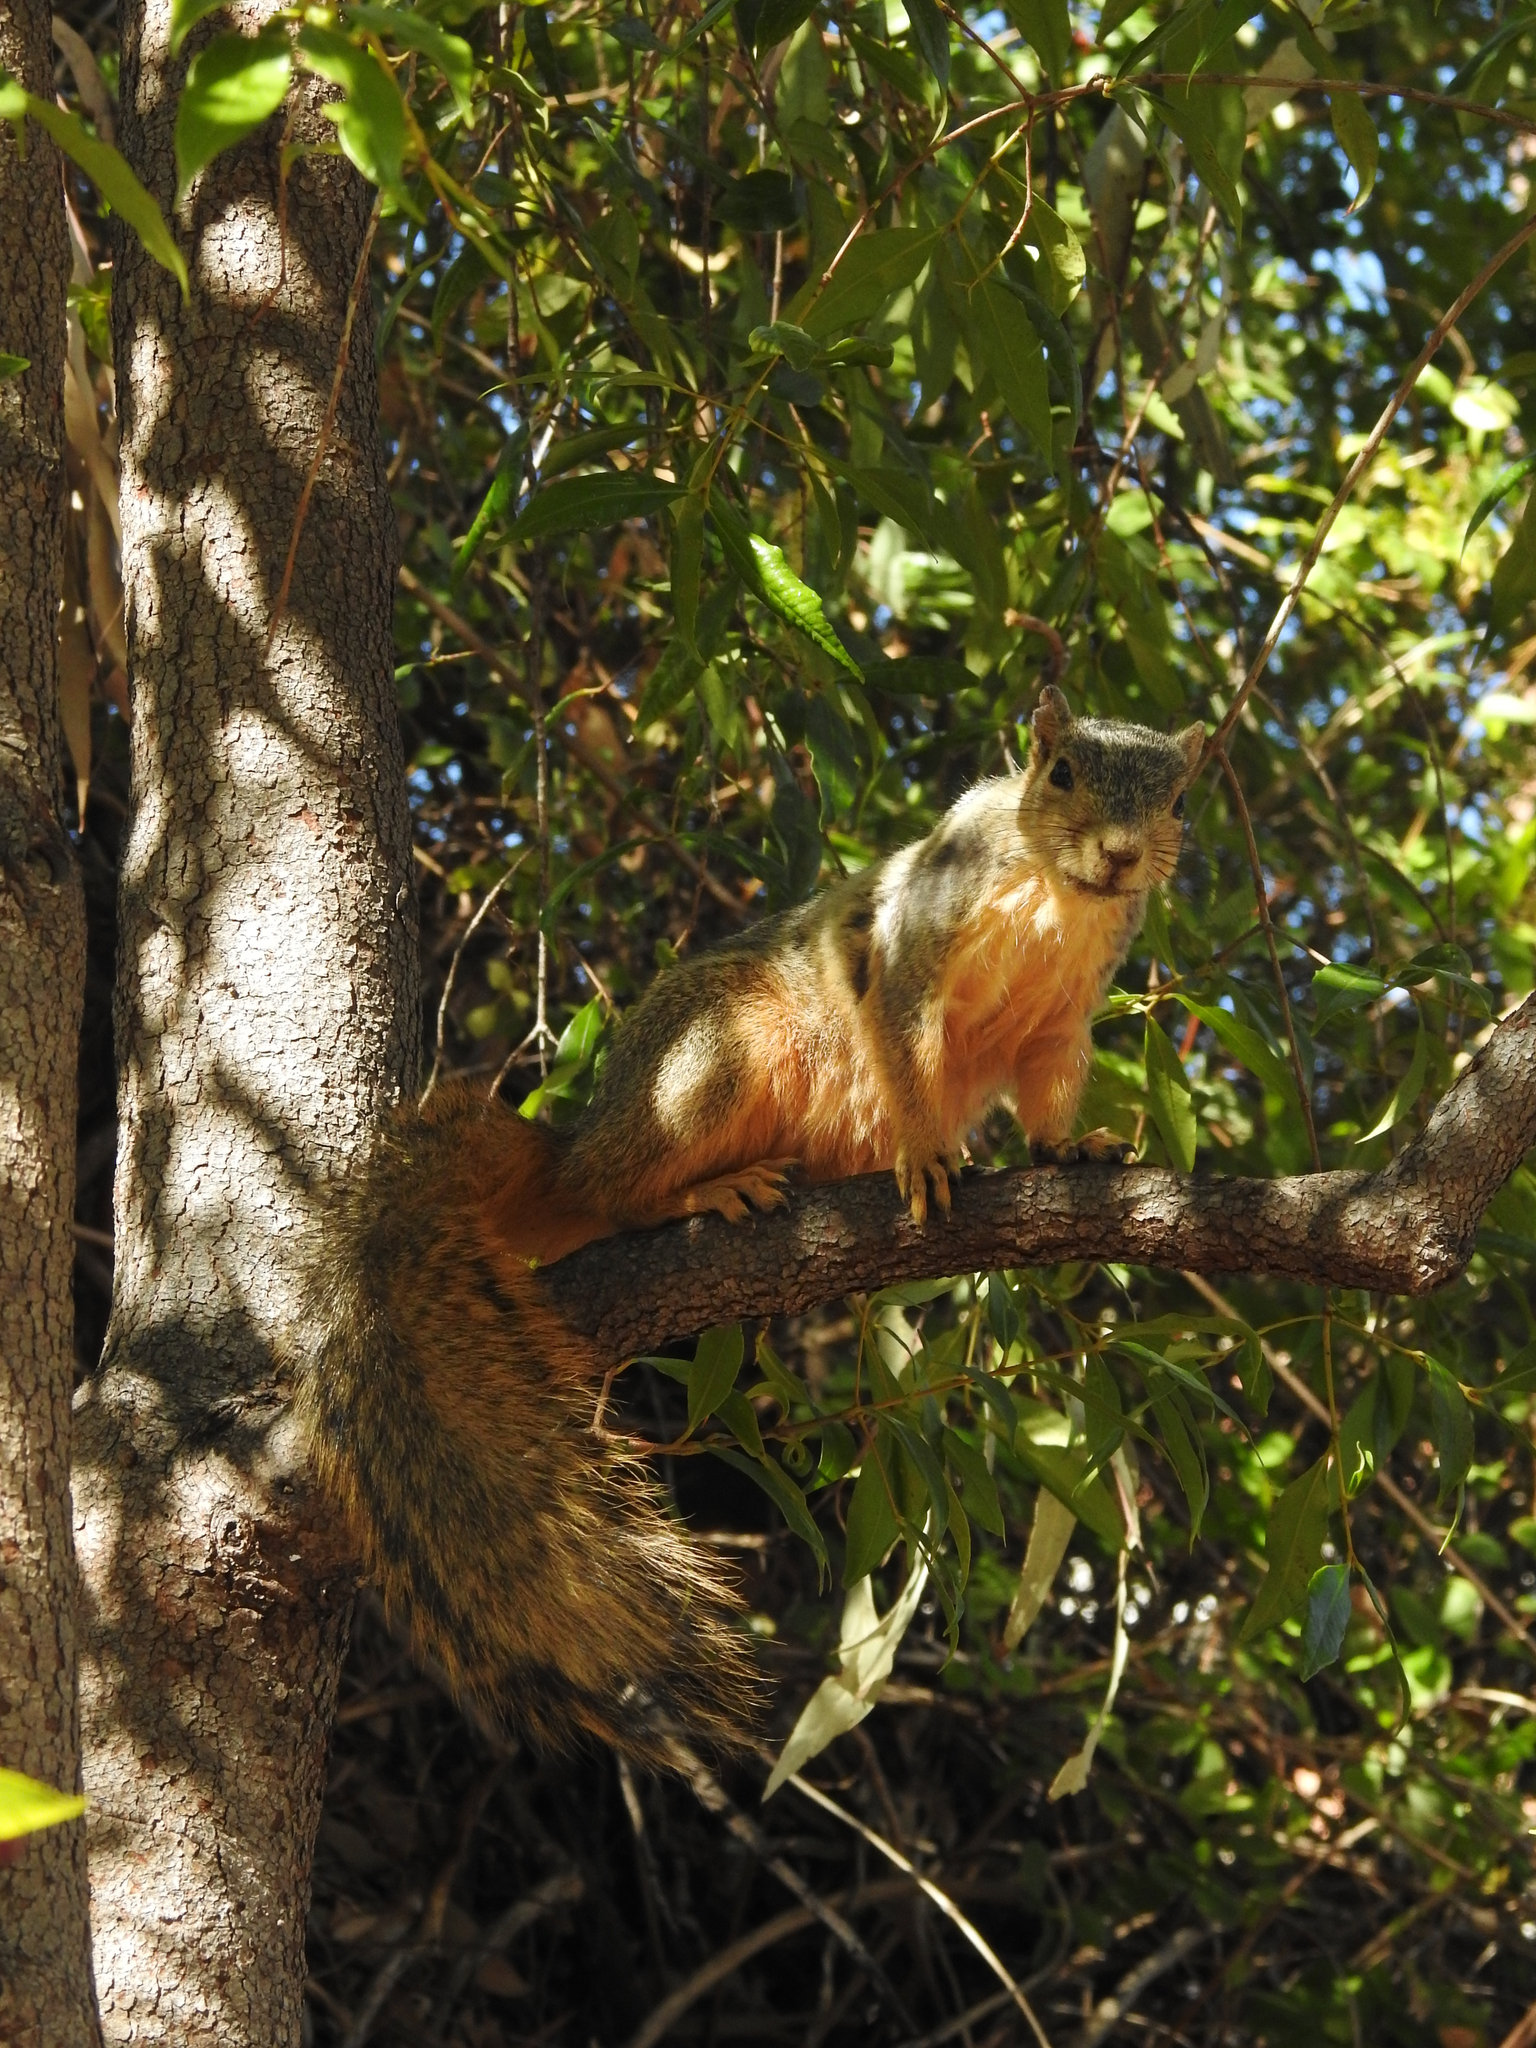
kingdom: Animalia
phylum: Chordata
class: Mammalia
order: Rodentia
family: Sciuridae
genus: Sciurus
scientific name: Sciurus niger
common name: Fox squirrel
